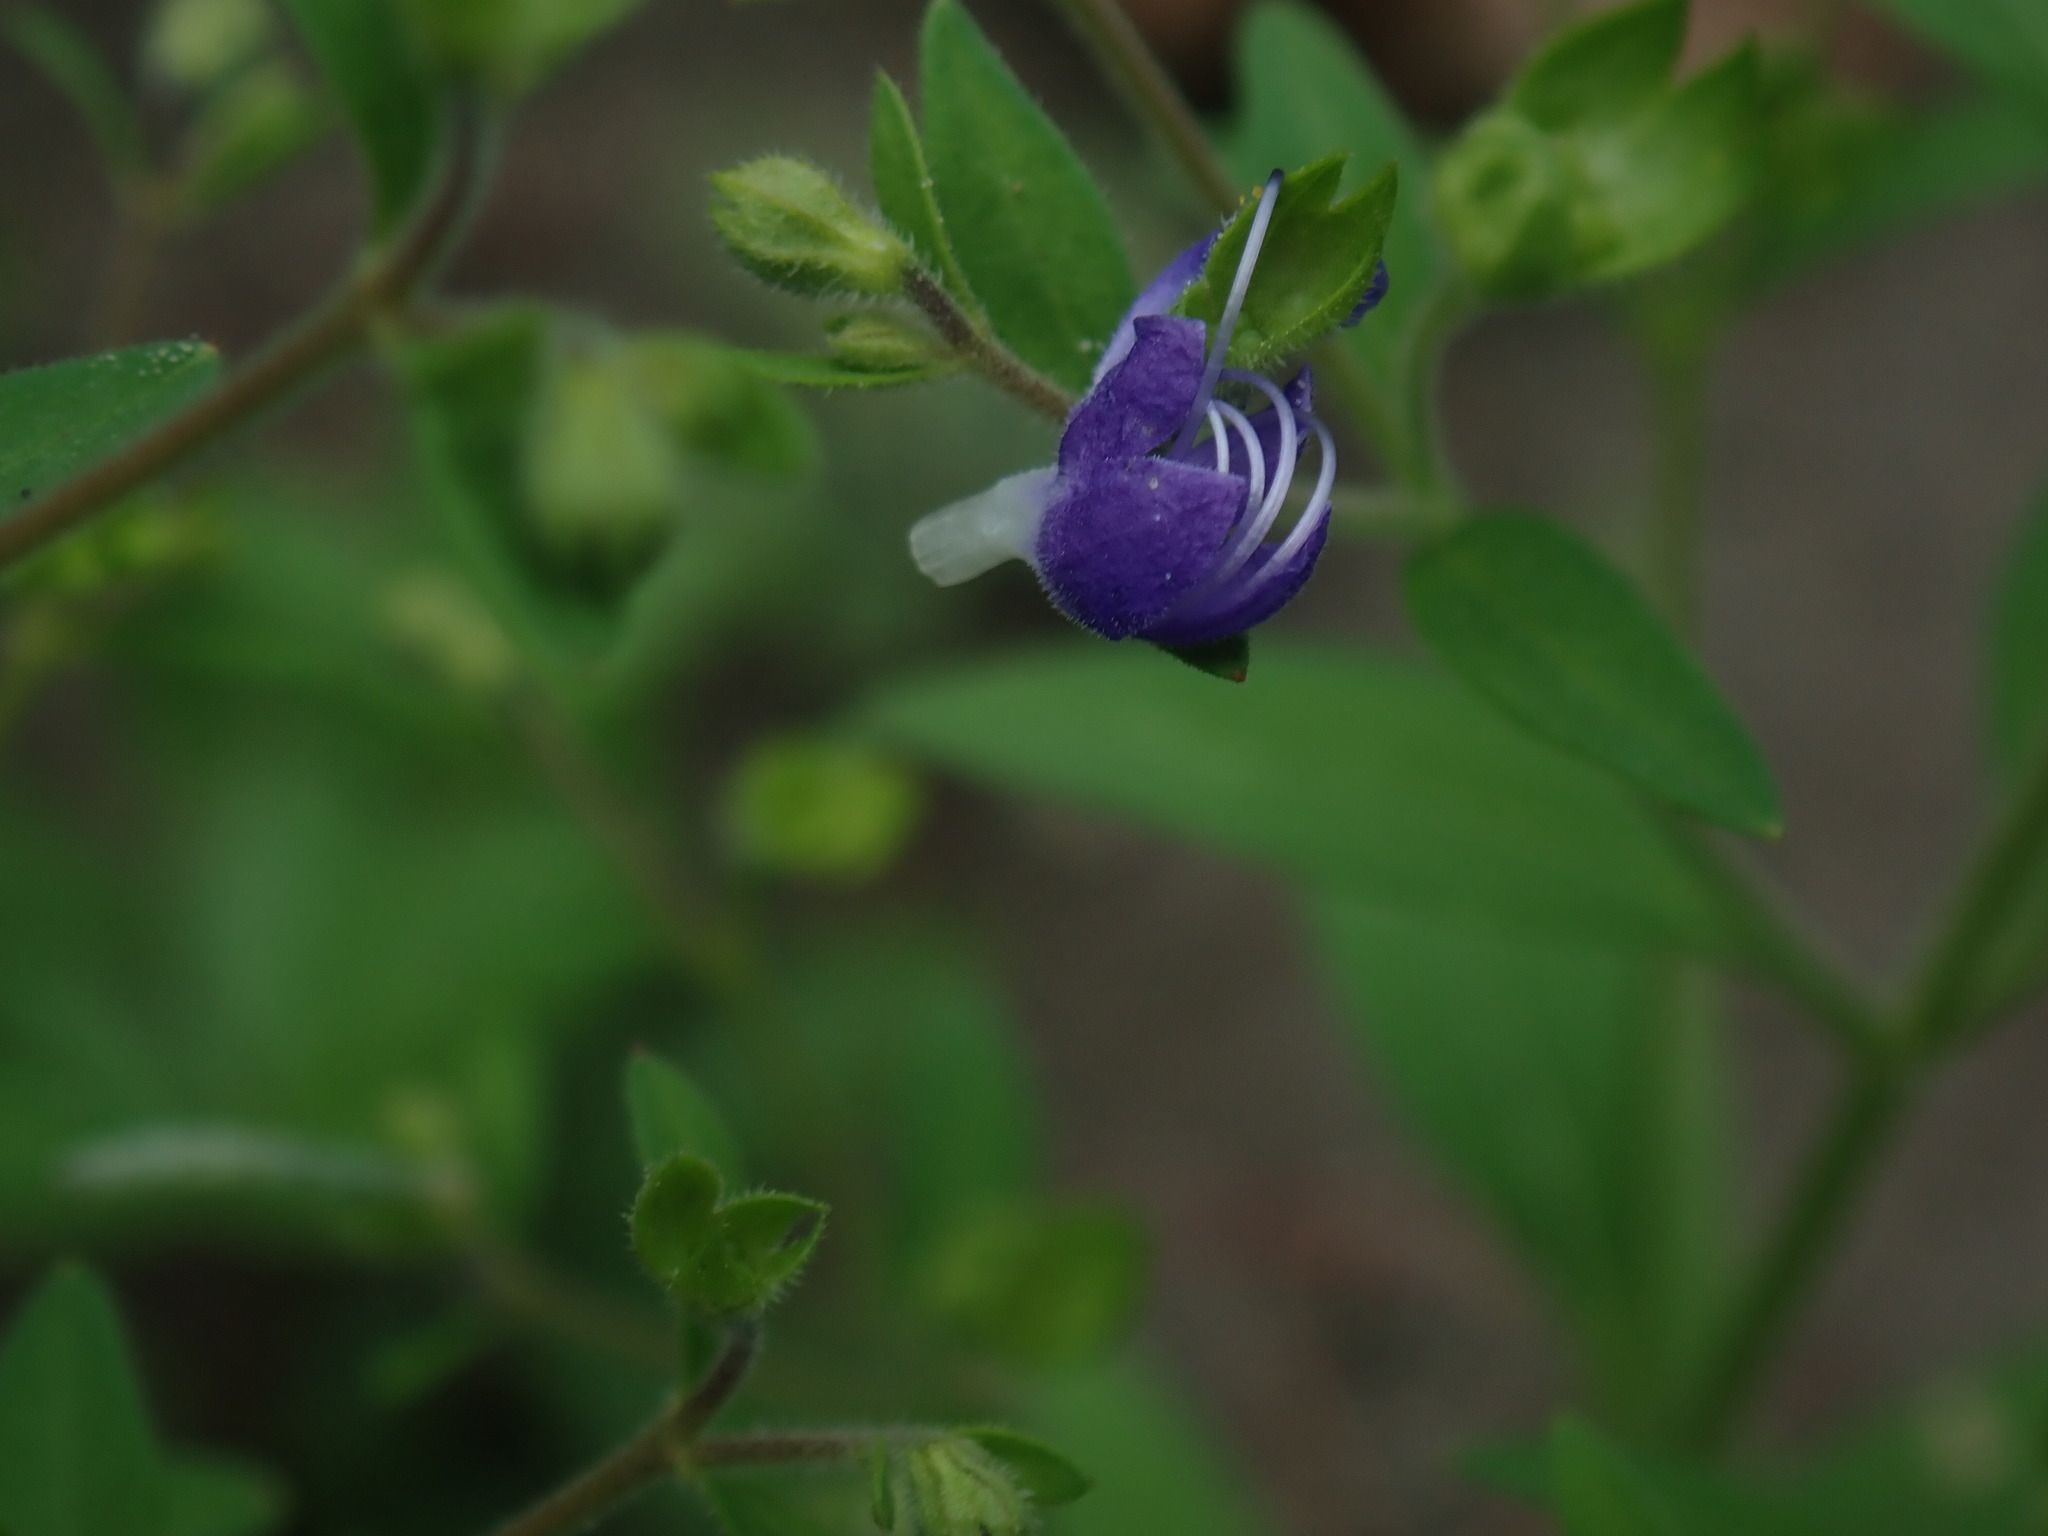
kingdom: Plantae
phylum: Tracheophyta
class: Magnoliopsida
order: Lamiales
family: Lamiaceae
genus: Trichostema
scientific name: Trichostema dichotomum
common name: Bastard pennyroyal
